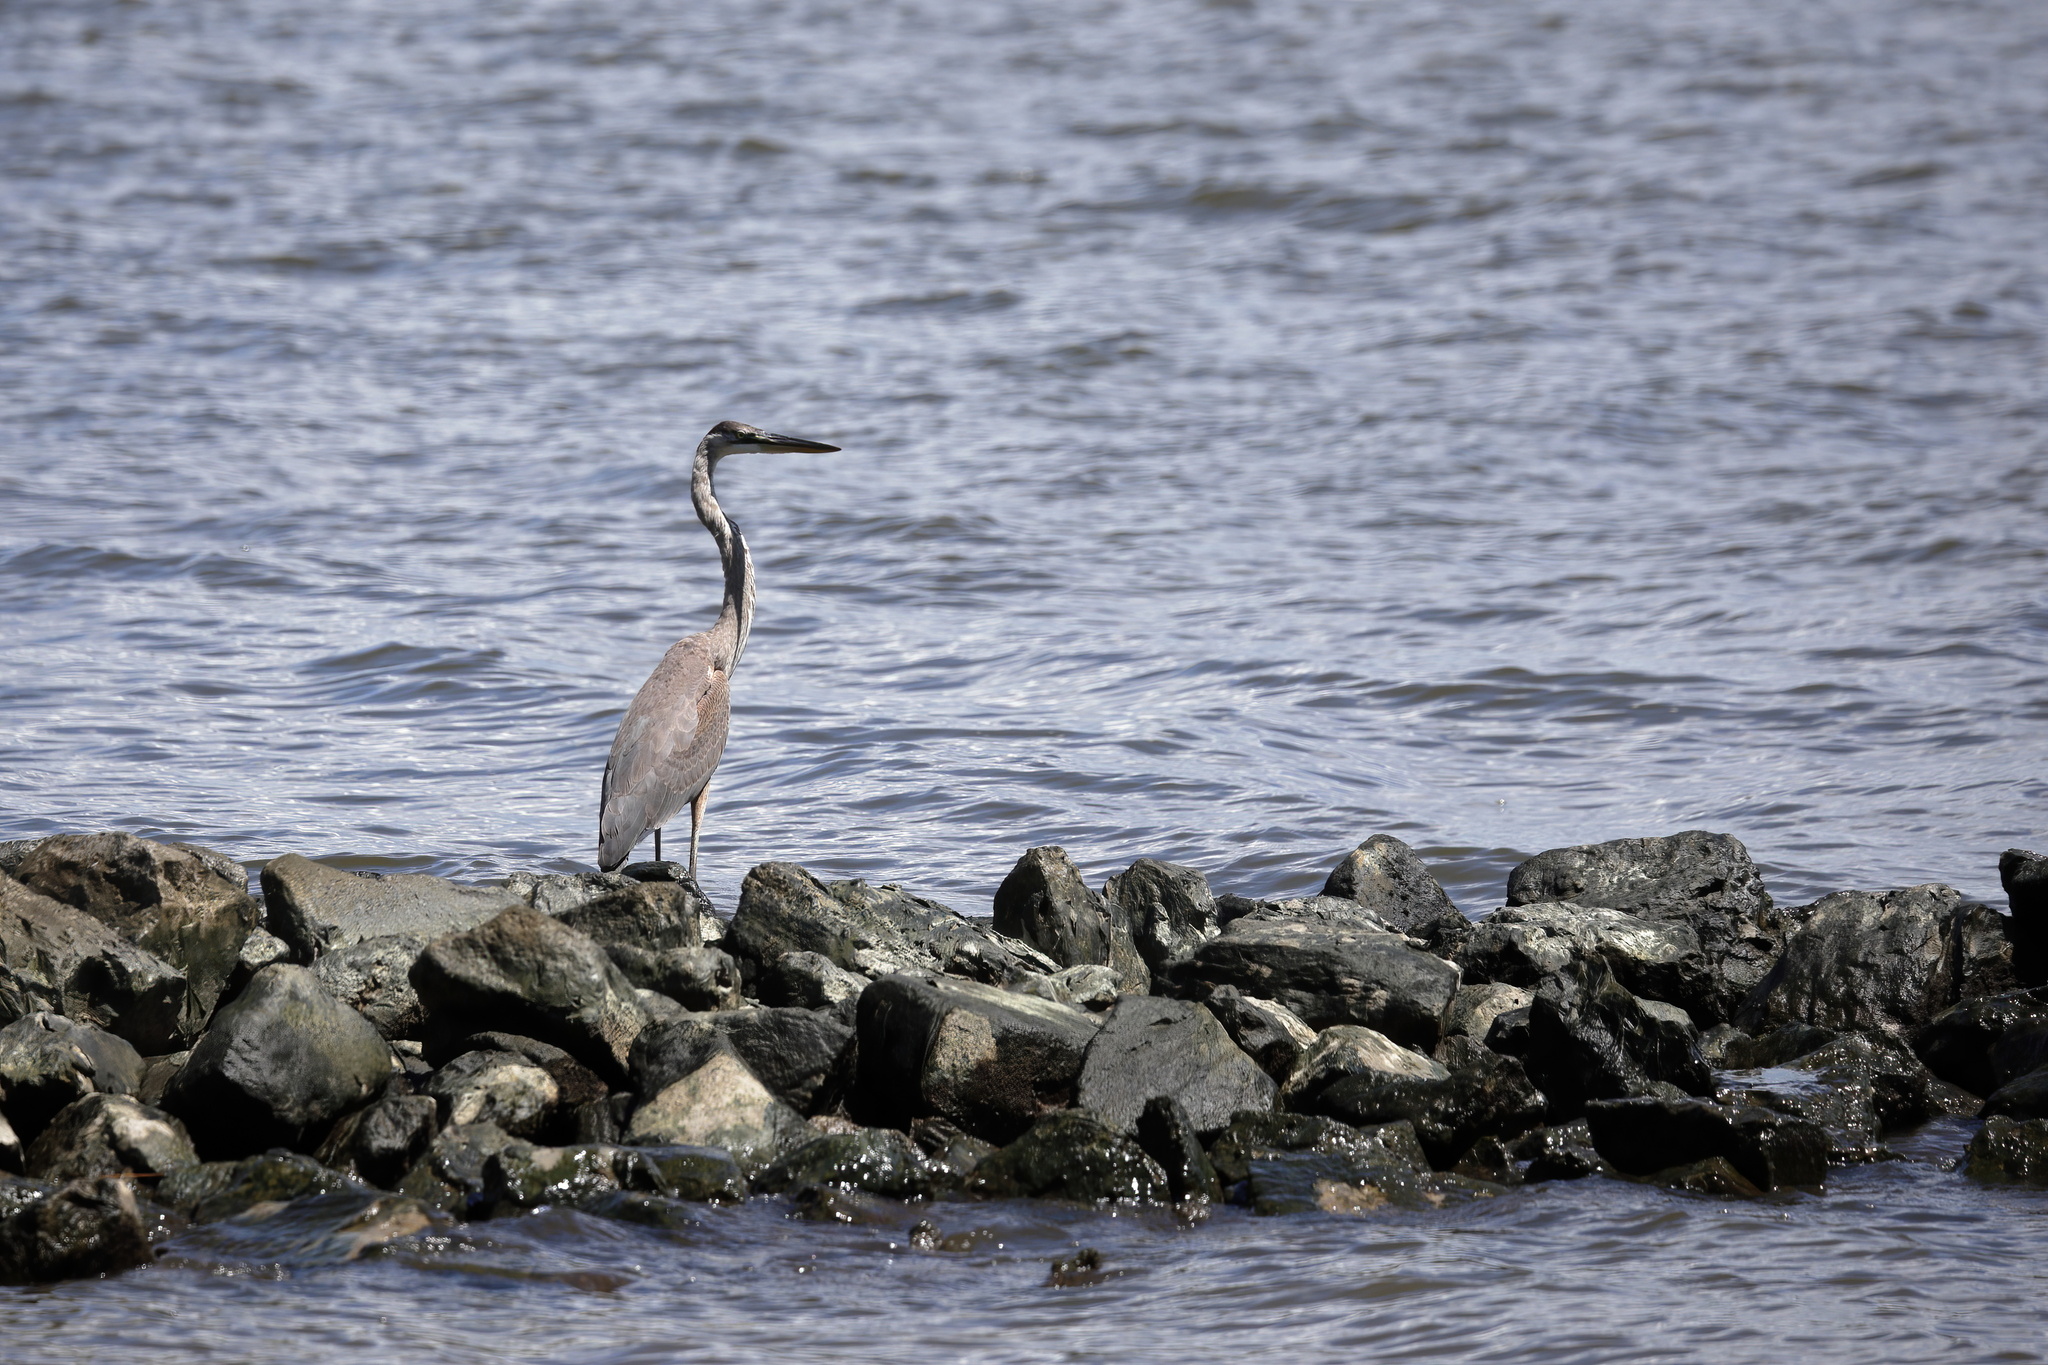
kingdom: Animalia
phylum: Chordata
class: Aves
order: Pelecaniformes
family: Ardeidae
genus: Ardea
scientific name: Ardea herodias
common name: Great blue heron
